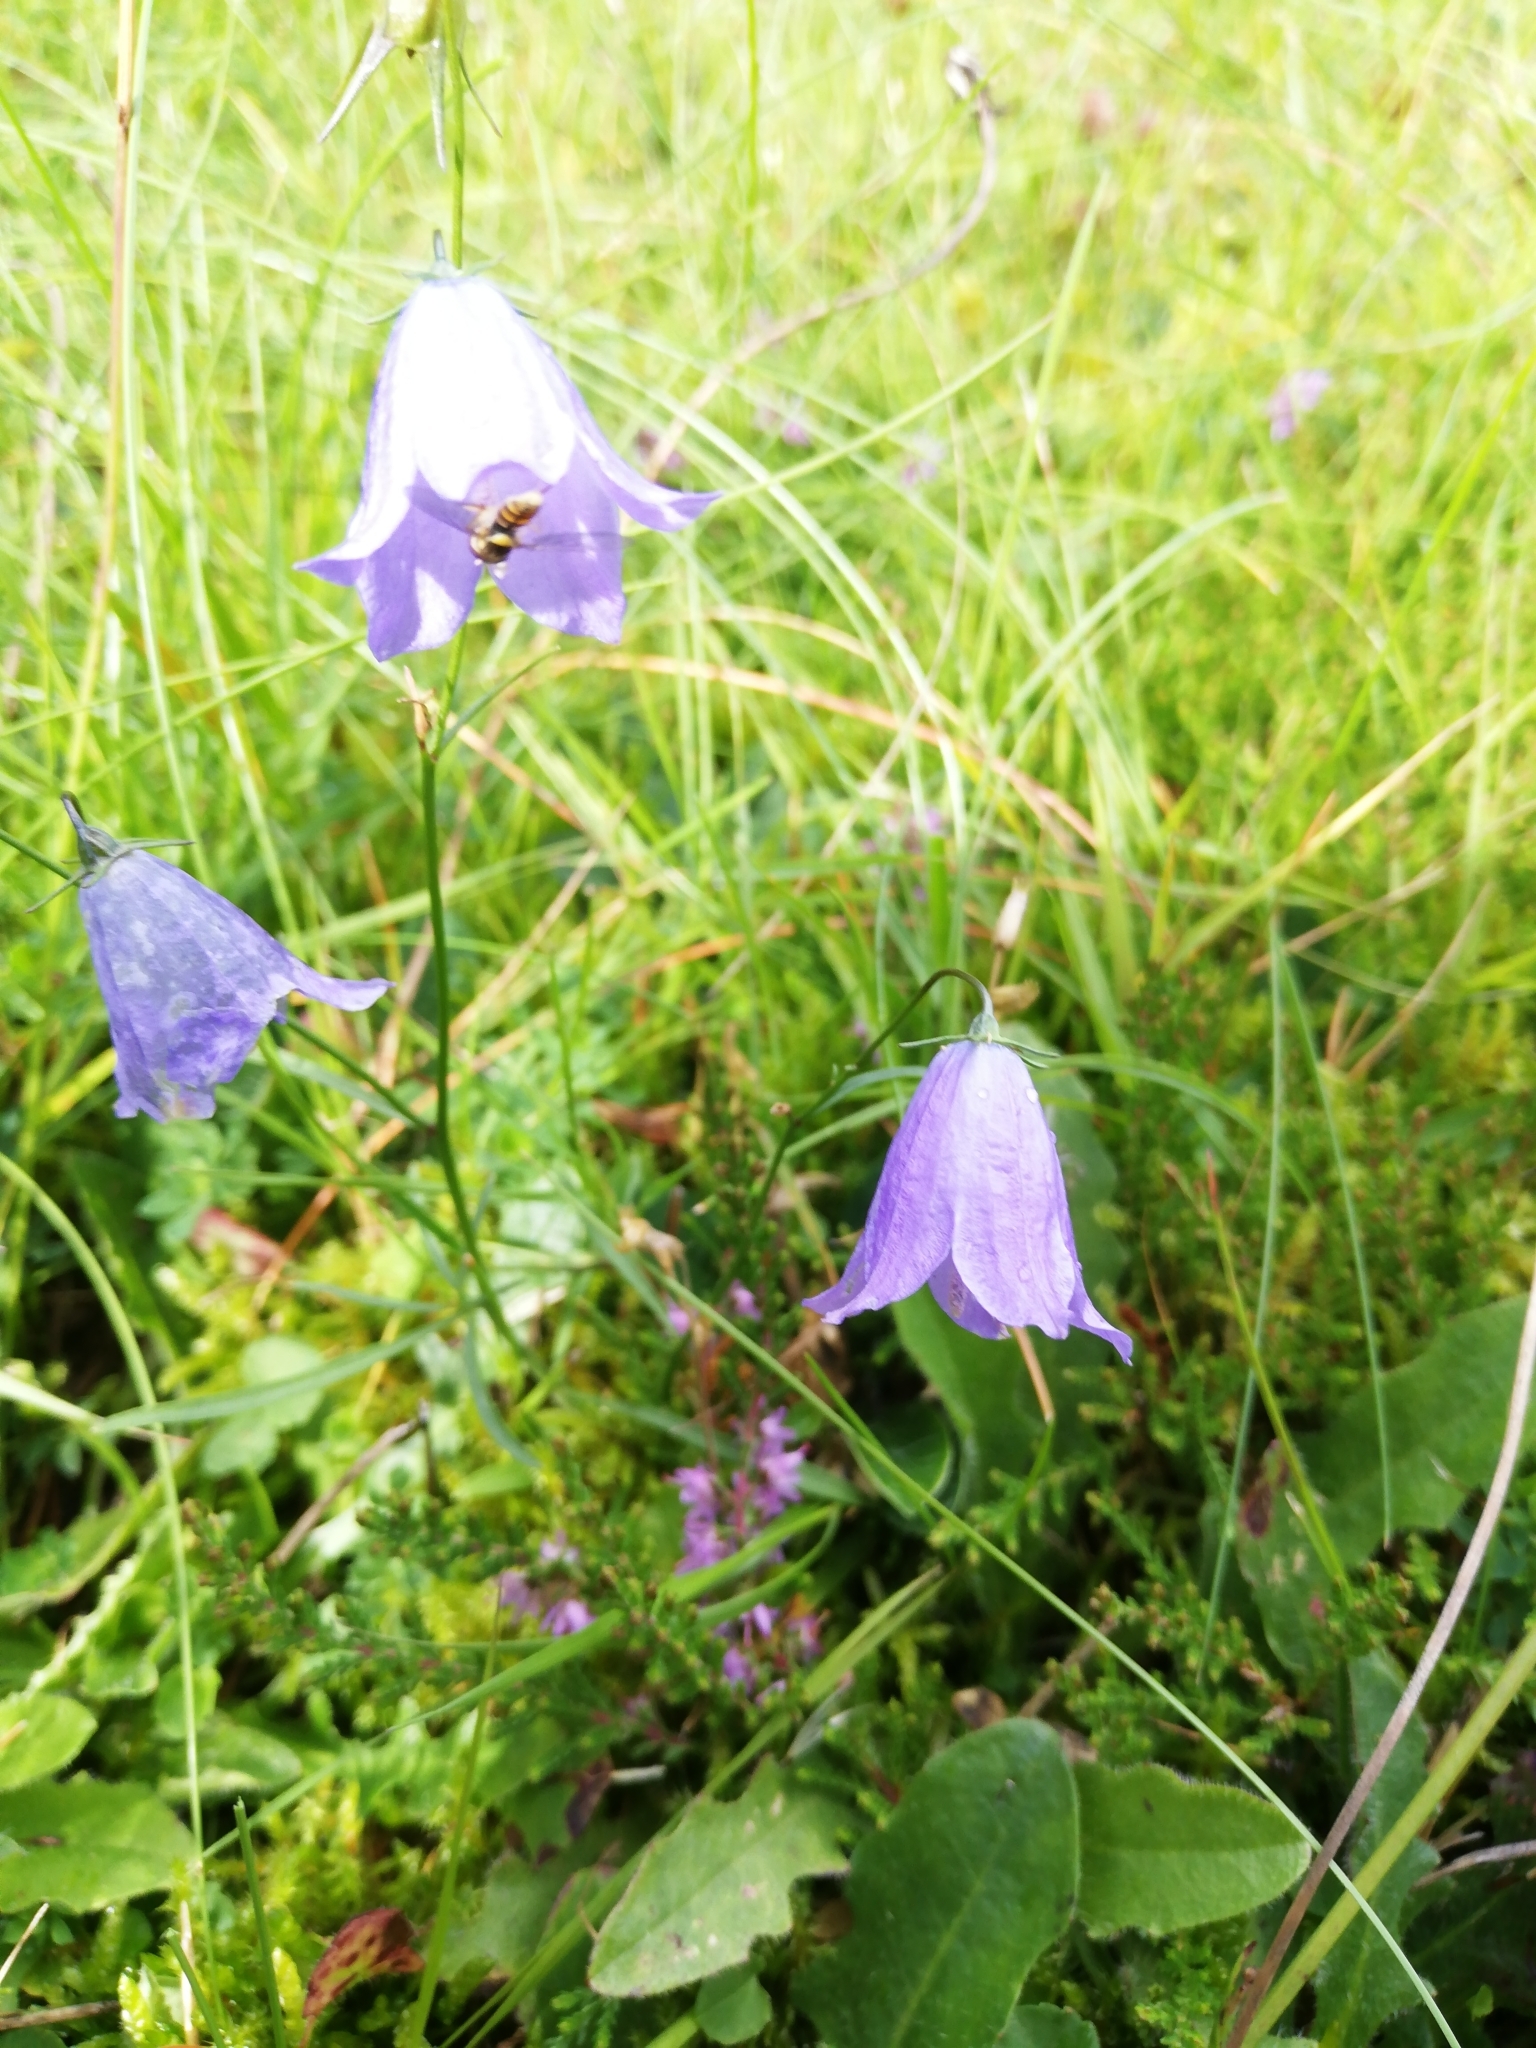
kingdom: Plantae
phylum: Tracheophyta
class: Magnoliopsida
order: Asterales
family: Campanulaceae
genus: Campanula
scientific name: Campanula rotundifolia
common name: Harebell
